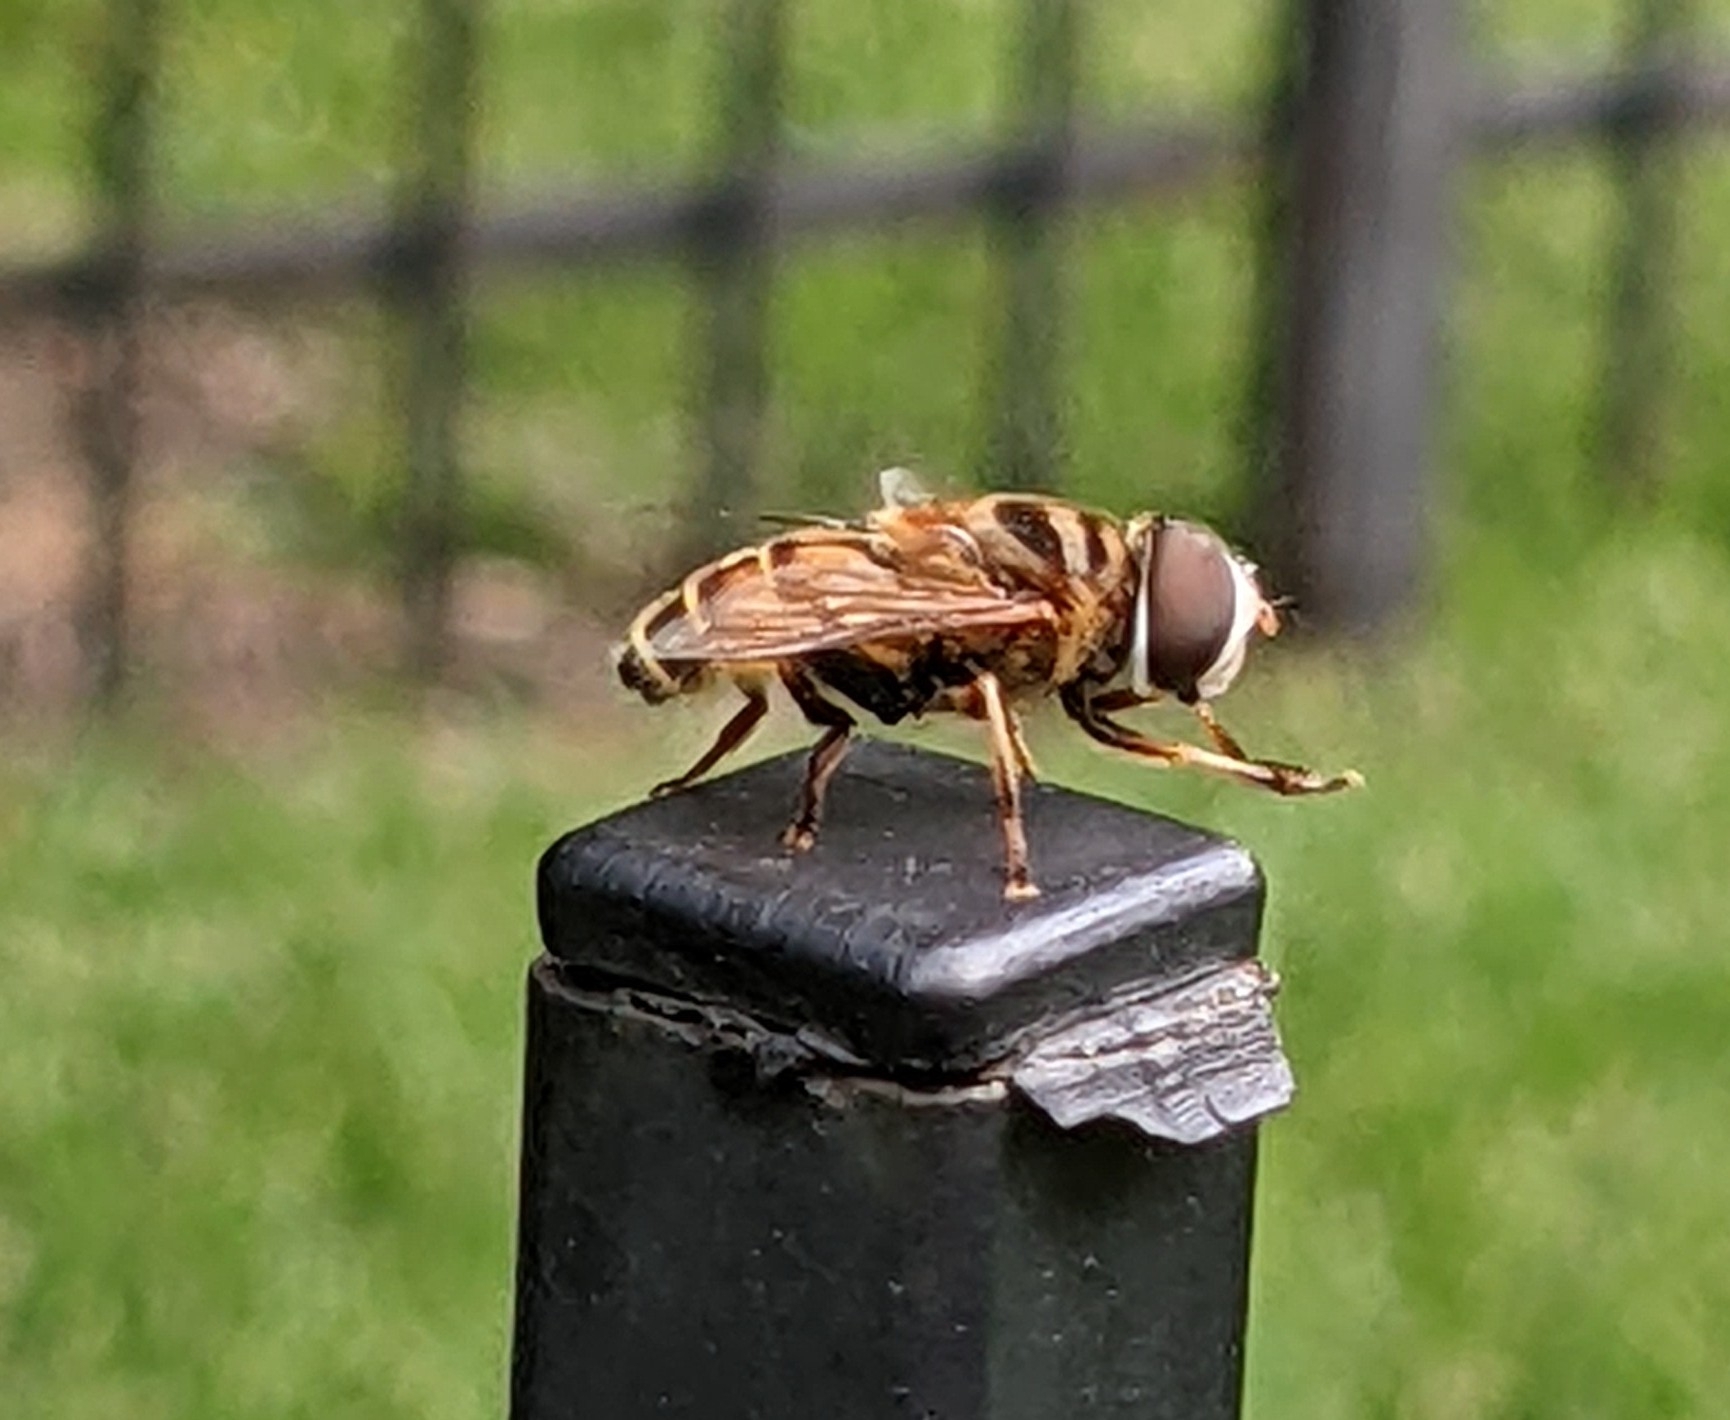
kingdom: Animalia
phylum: Arthropoda
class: Insecta
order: Diptera
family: Syrphidae
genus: Palpada
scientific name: Palpada vinetorum
